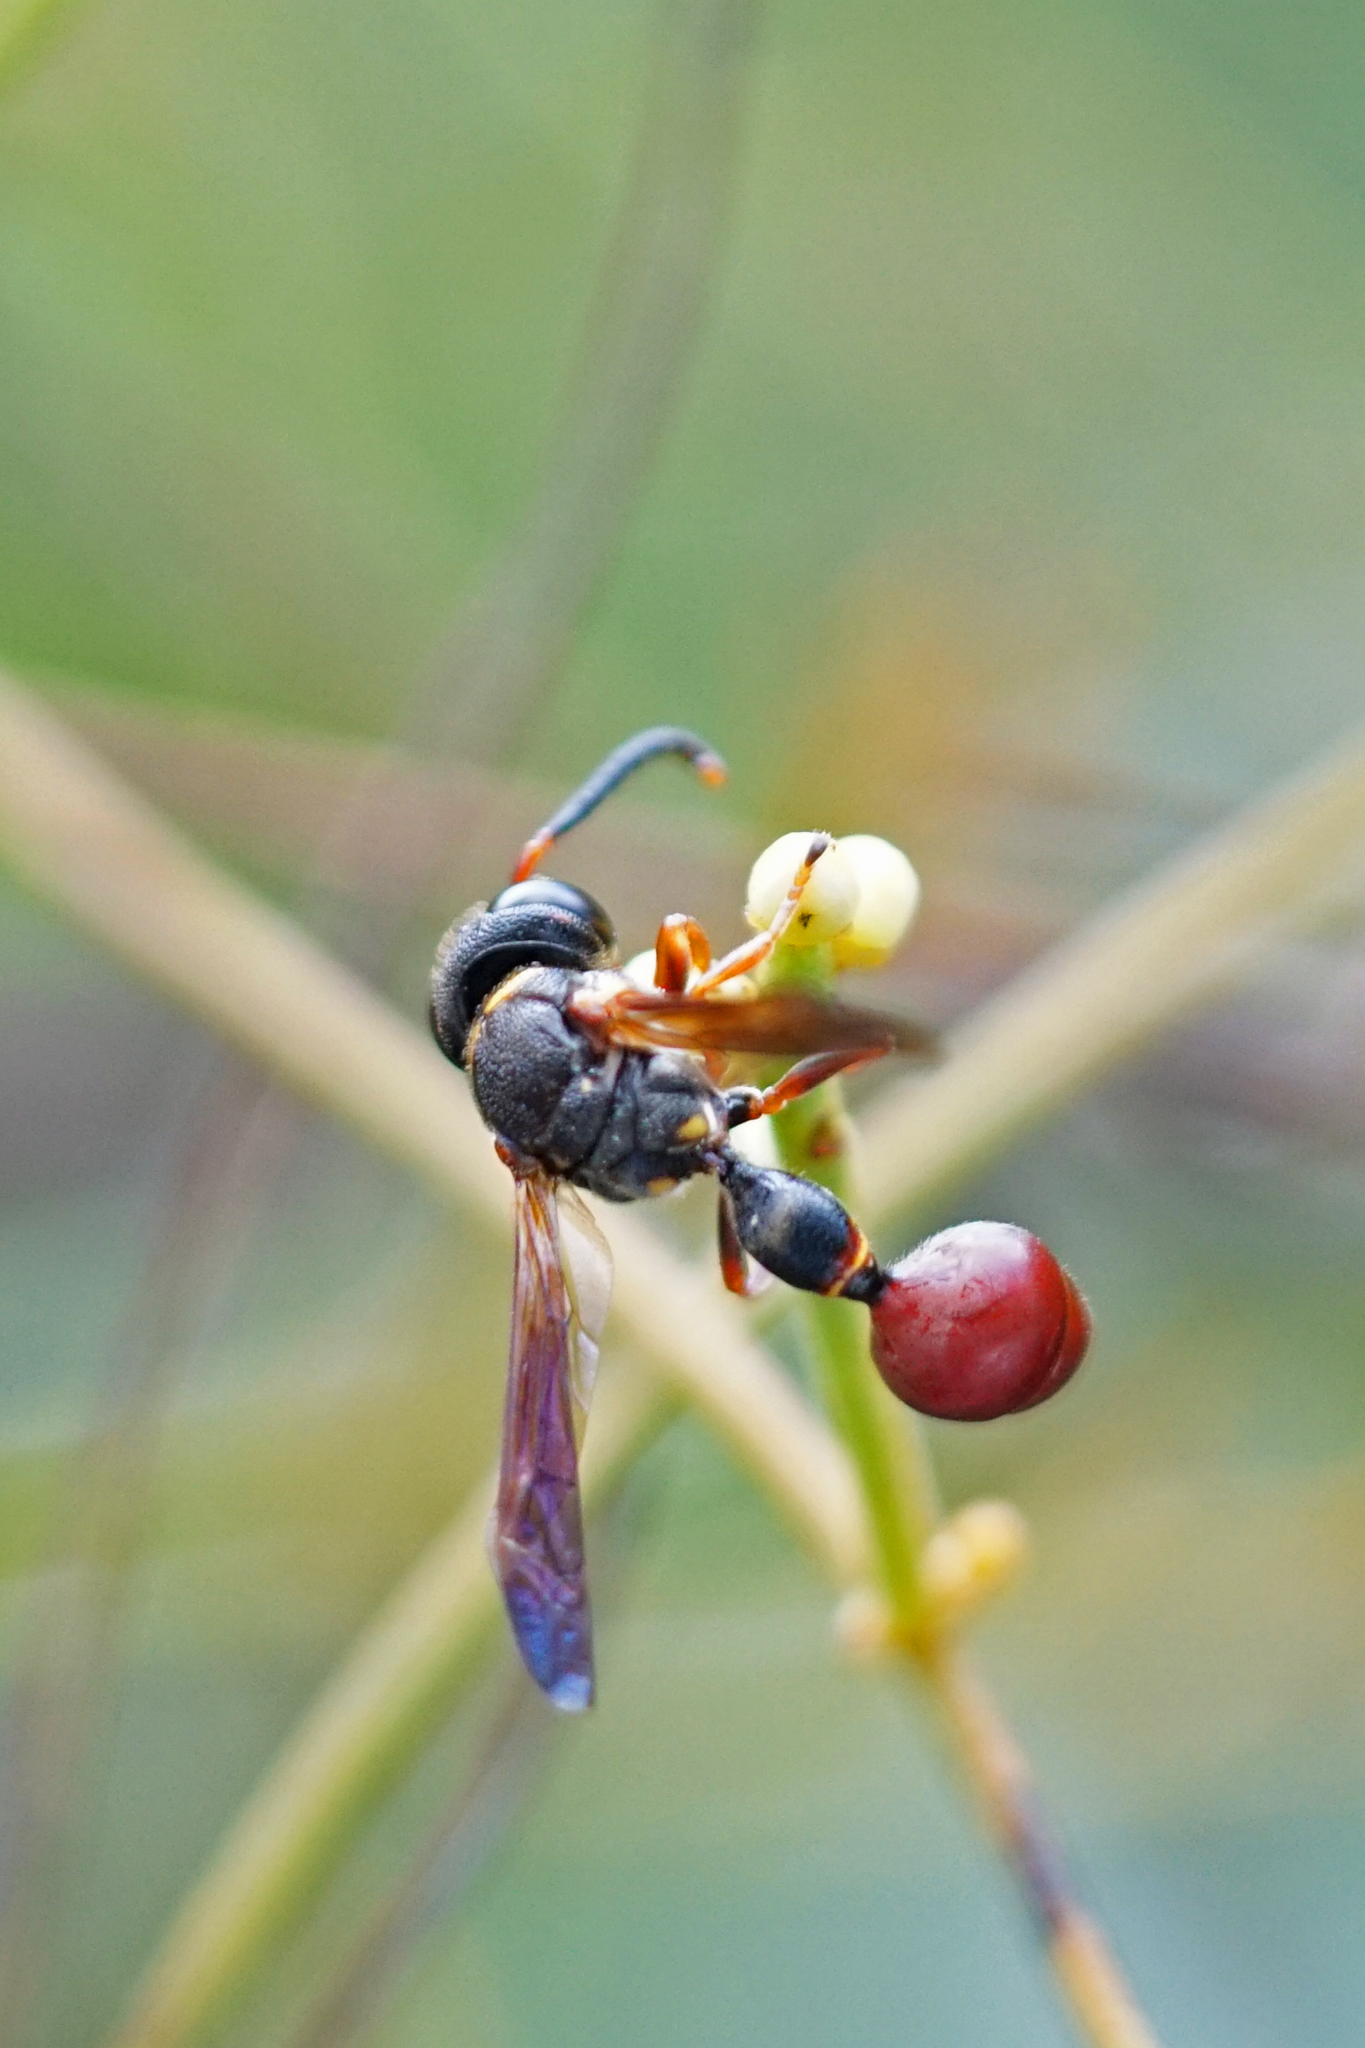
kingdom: Animalia
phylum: Arthropoda
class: Insecta
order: Hymenoptera
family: Eumenidae
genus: Zethus
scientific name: Zethus slossonae
